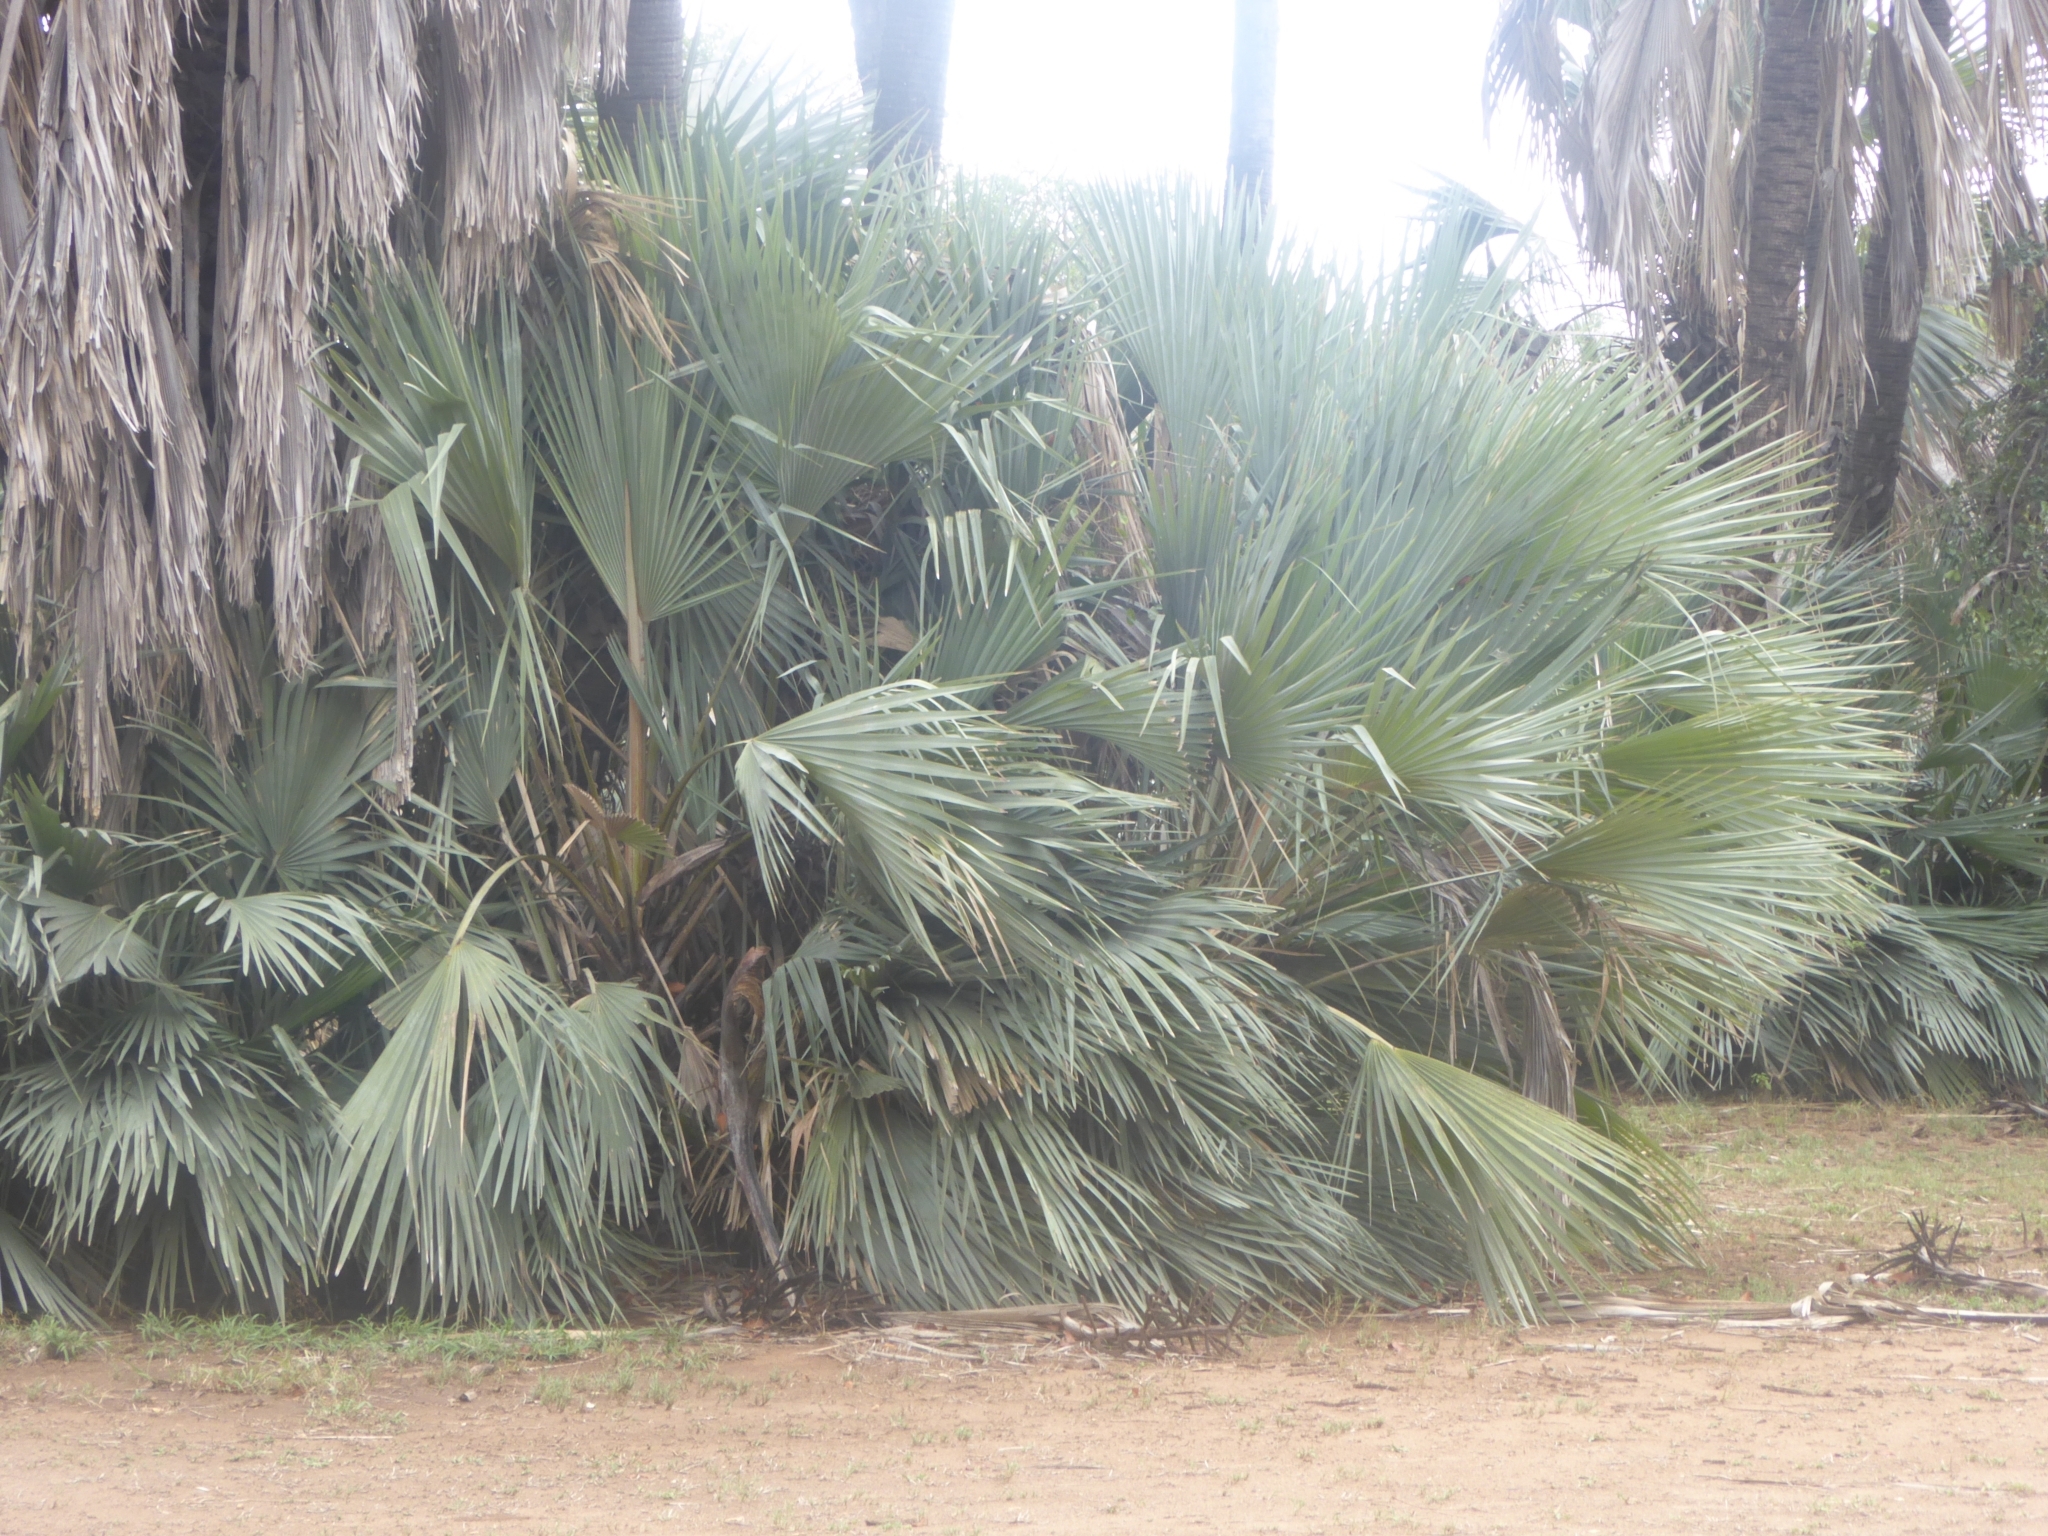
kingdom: Plantae
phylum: Tracheophyta
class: Liliopsida
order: Arecales
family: Arecaceae
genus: Hyphaene
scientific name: Hyphaene petersiana
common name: African ivory nut palm
